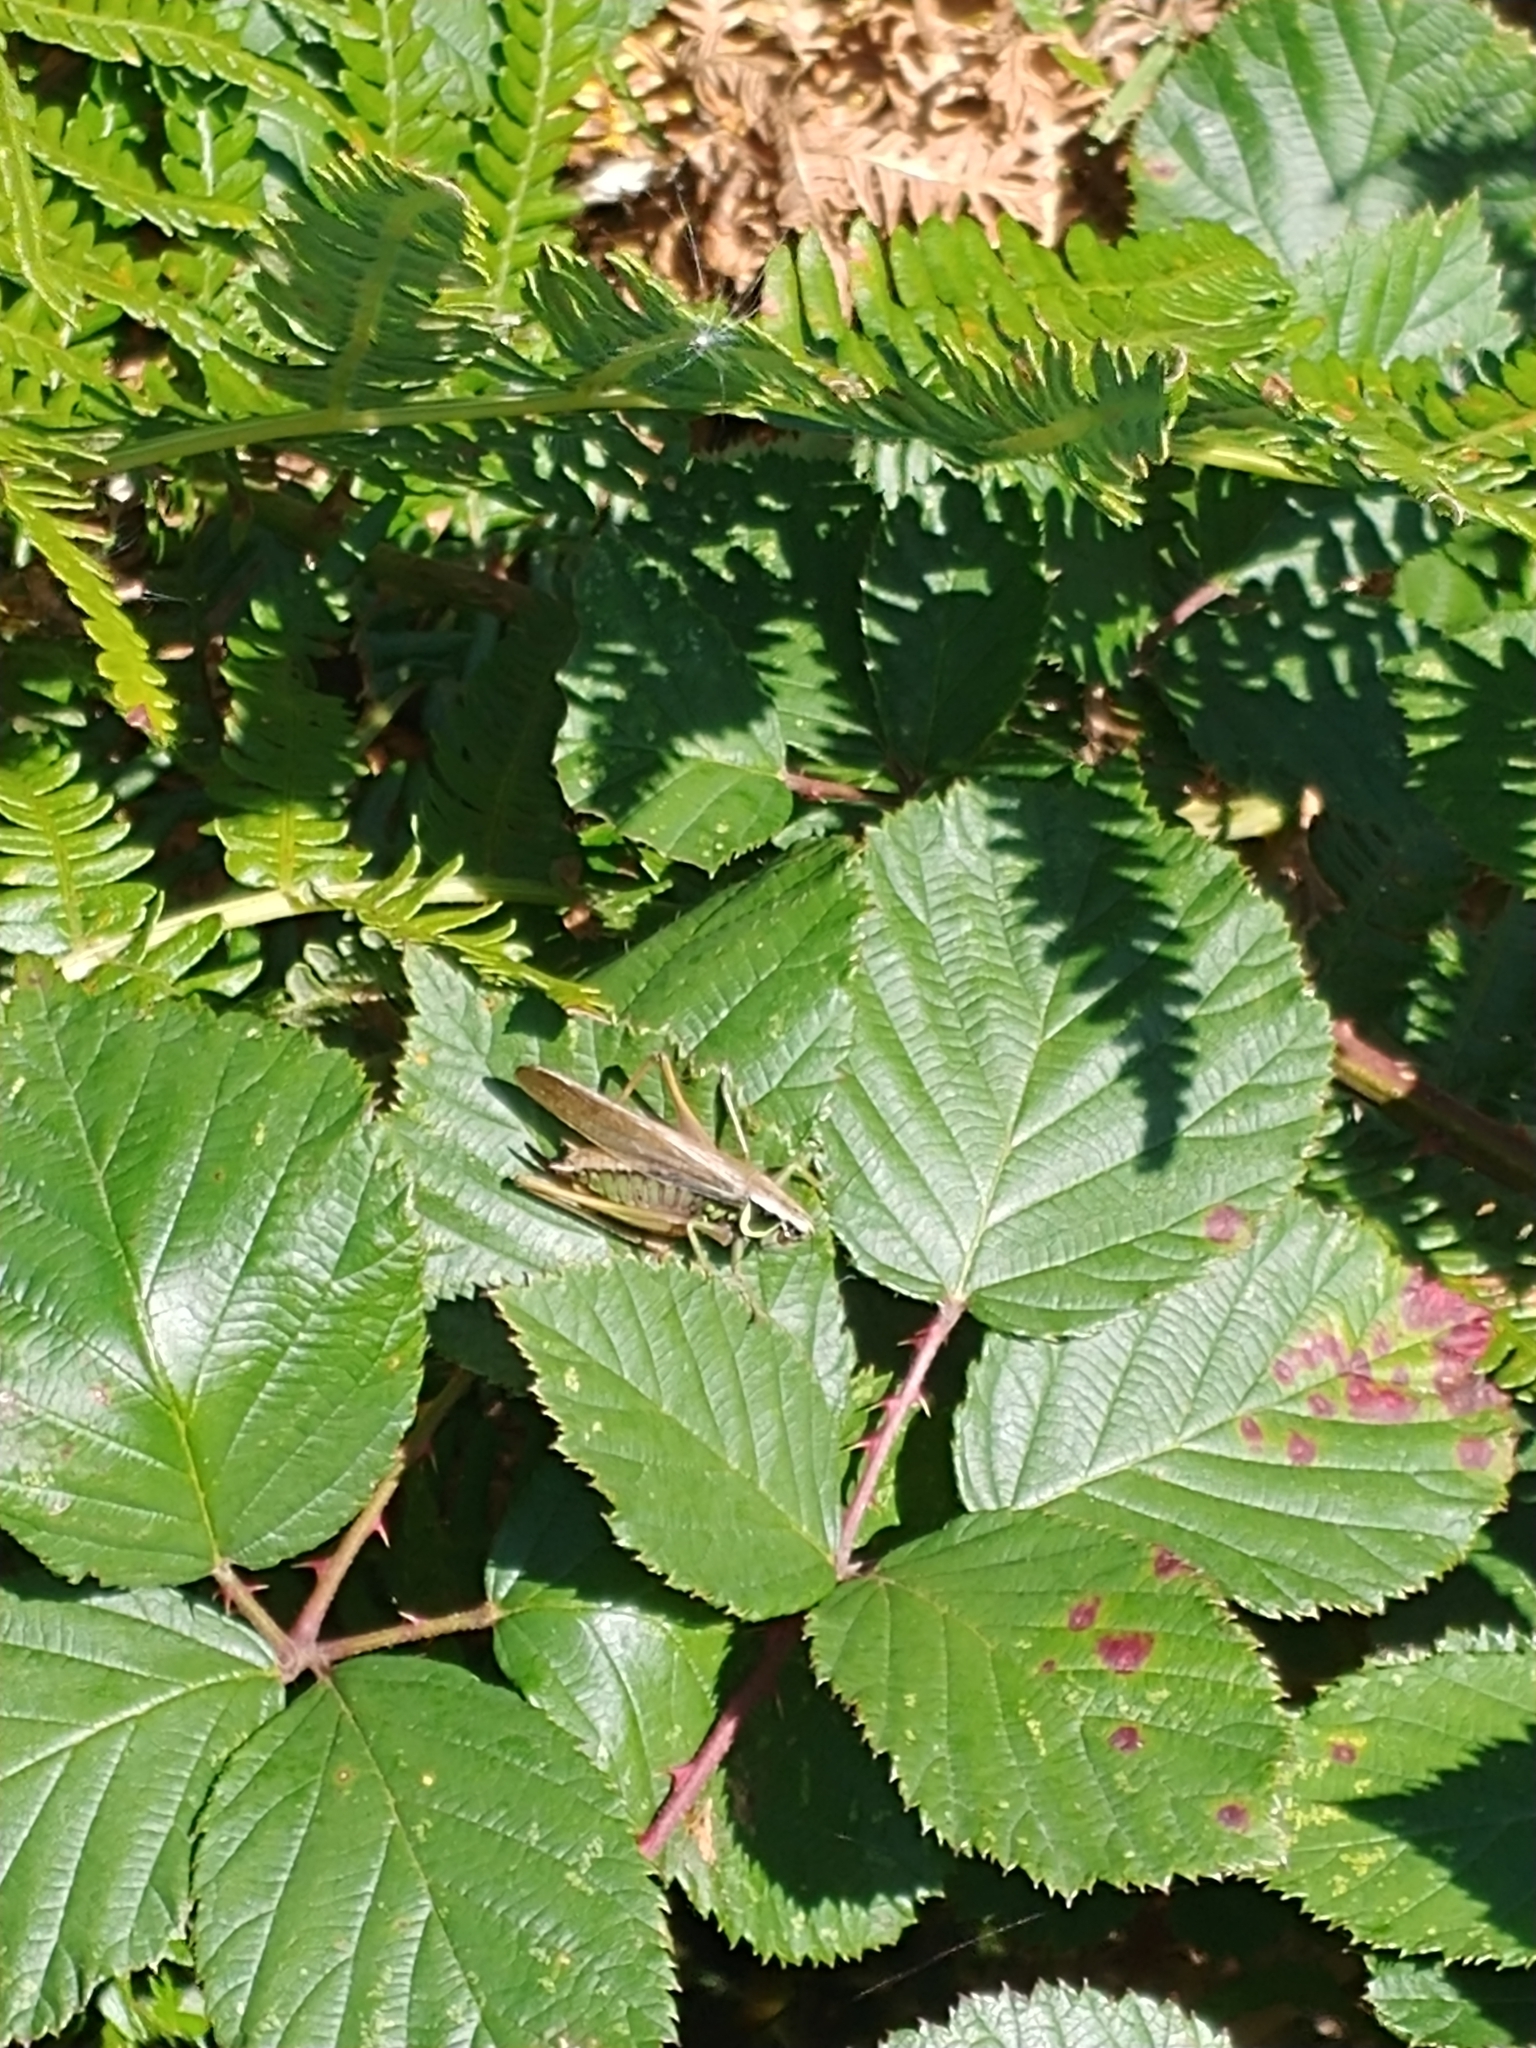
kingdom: Animalia
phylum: Arthropoda
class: Insecta
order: Orthoptera
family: Tettigoniidae
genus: Roeseliana
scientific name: Roeseliana roeselii
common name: Roesel's bush cricket
